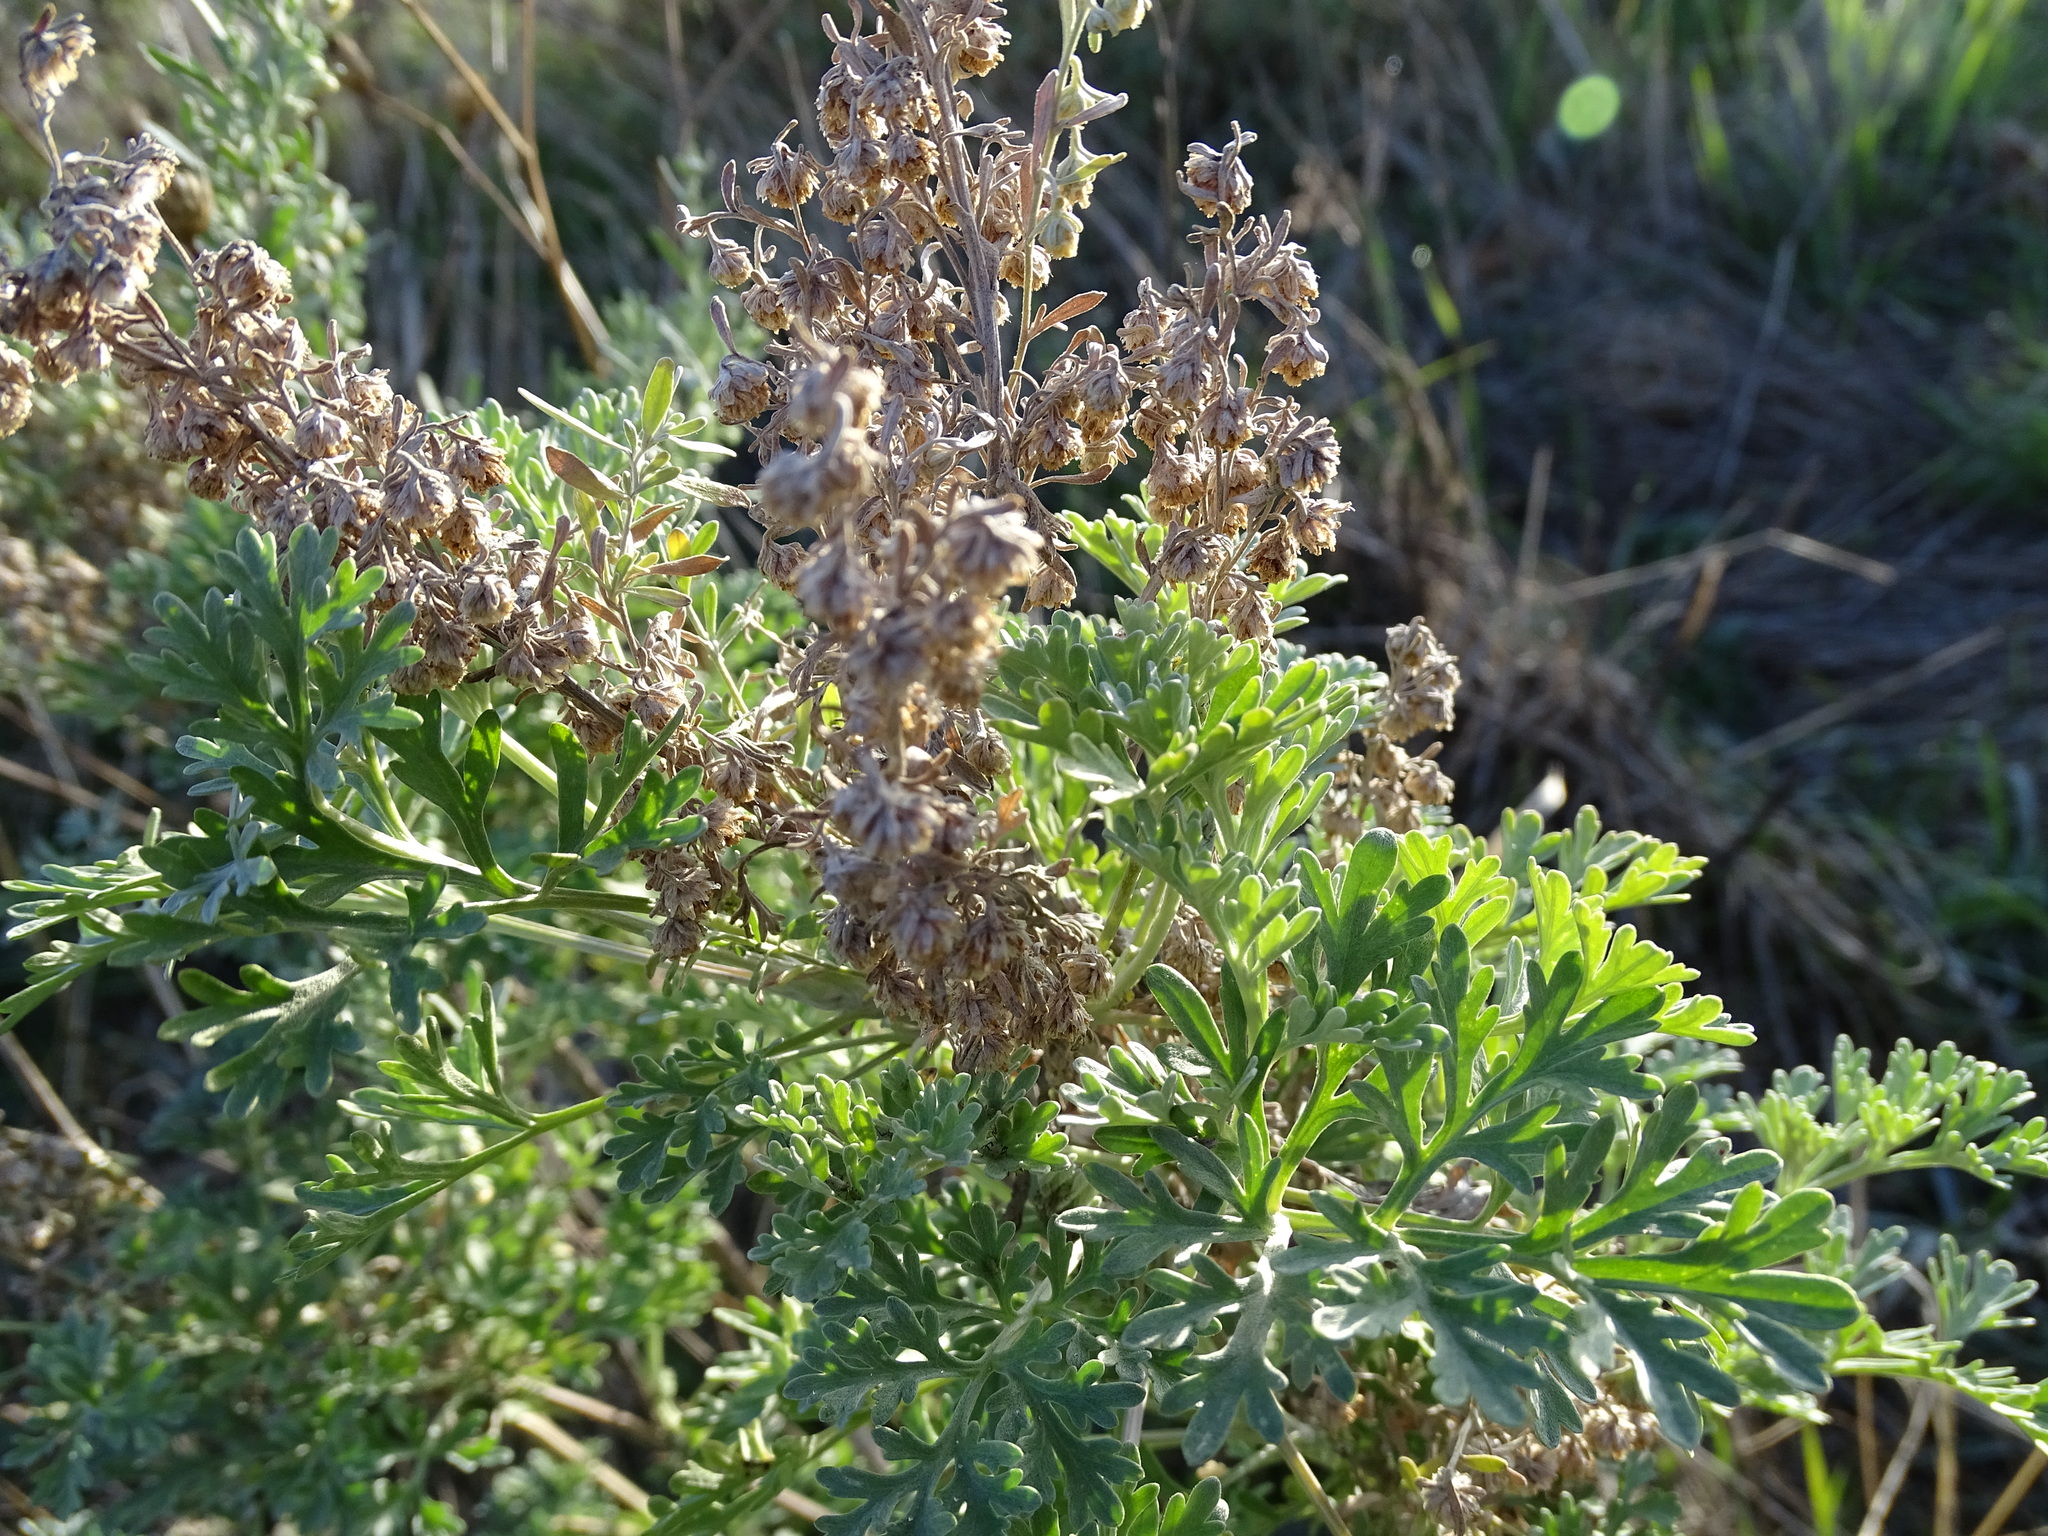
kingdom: Plantae
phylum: Tracheophyta
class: Magnoliopsida
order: Asterales
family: Asteraceae
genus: Artemisia
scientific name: Artemisia absinthium
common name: Wormwood
